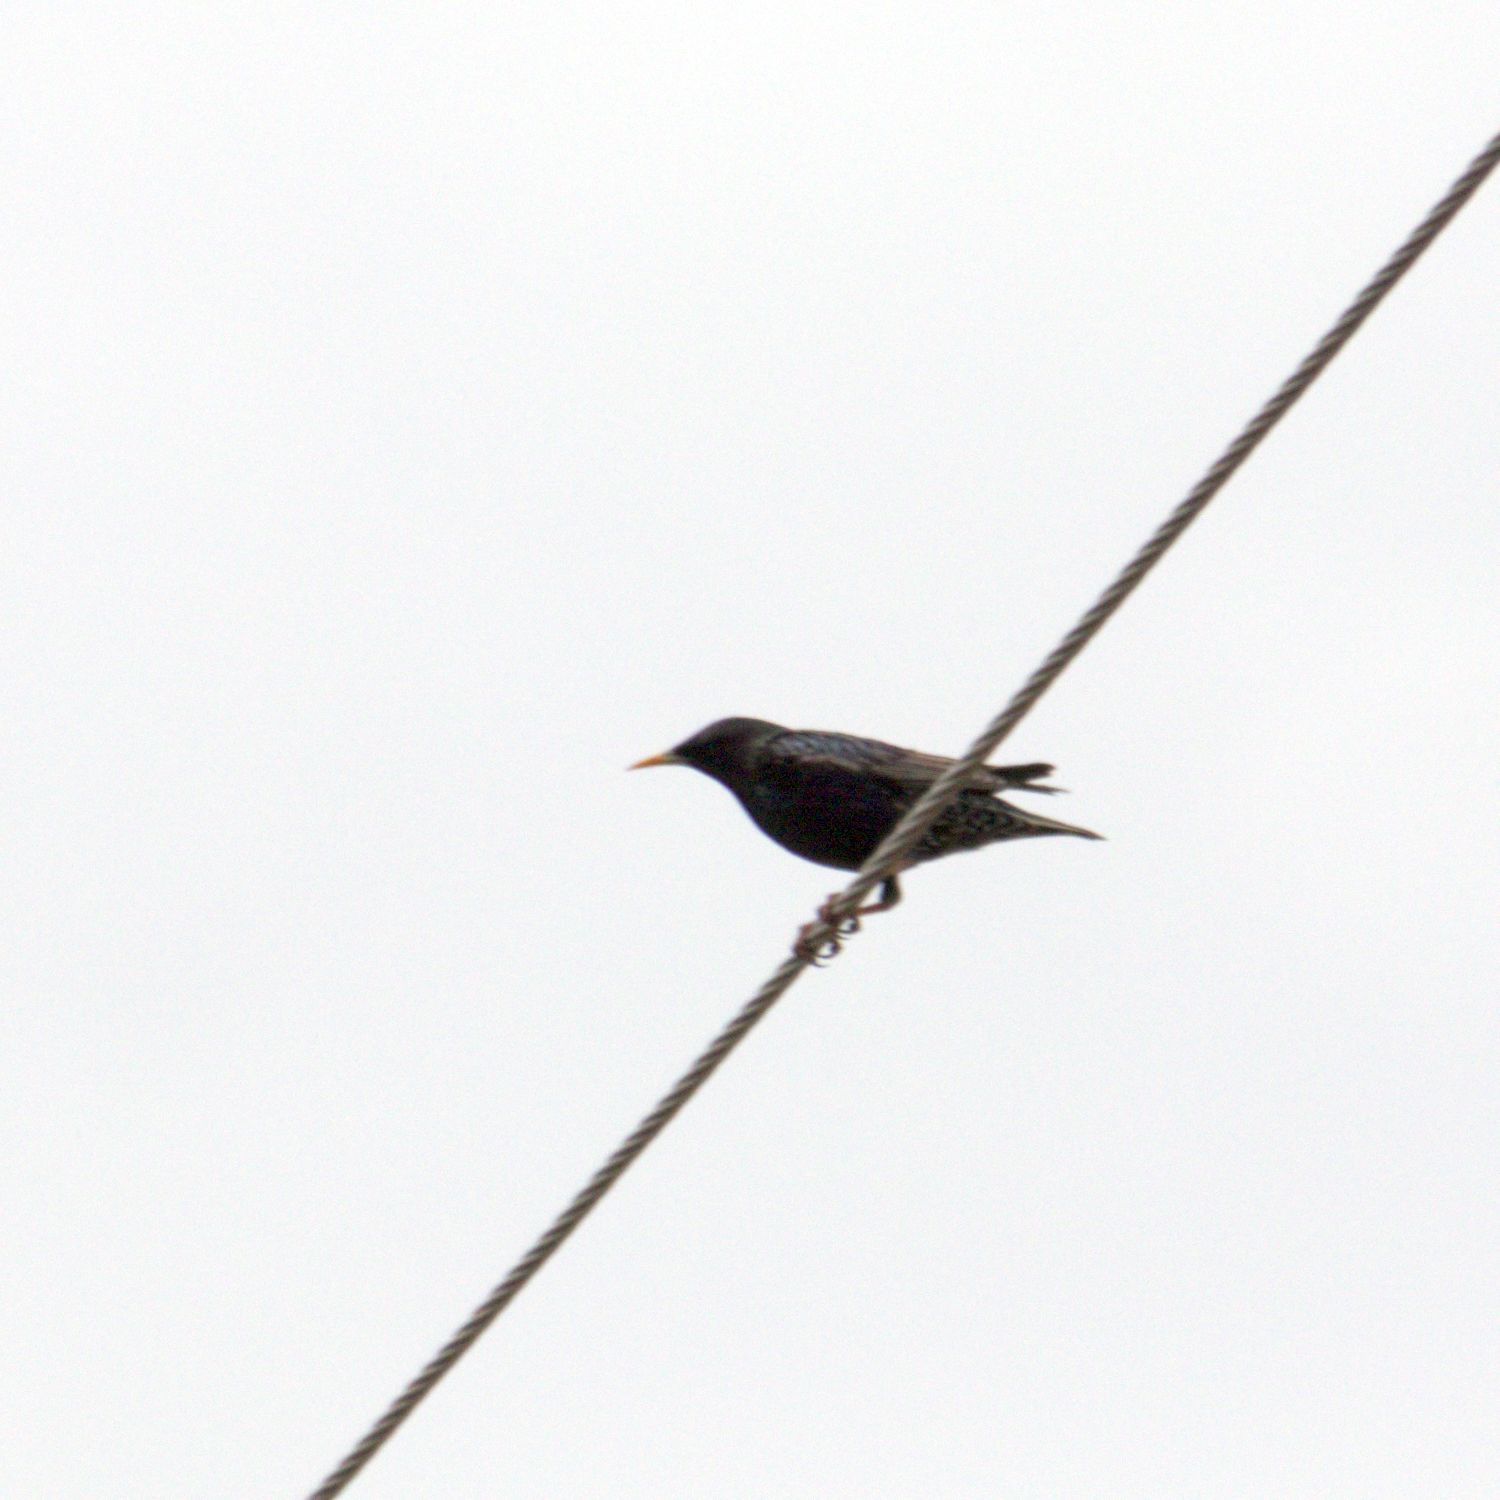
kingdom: Animalia
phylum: Chordata
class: Aves
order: Passeriformes
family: Sturnidae
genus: Sturnus
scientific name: Sturnus vulgaris
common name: Common starling
